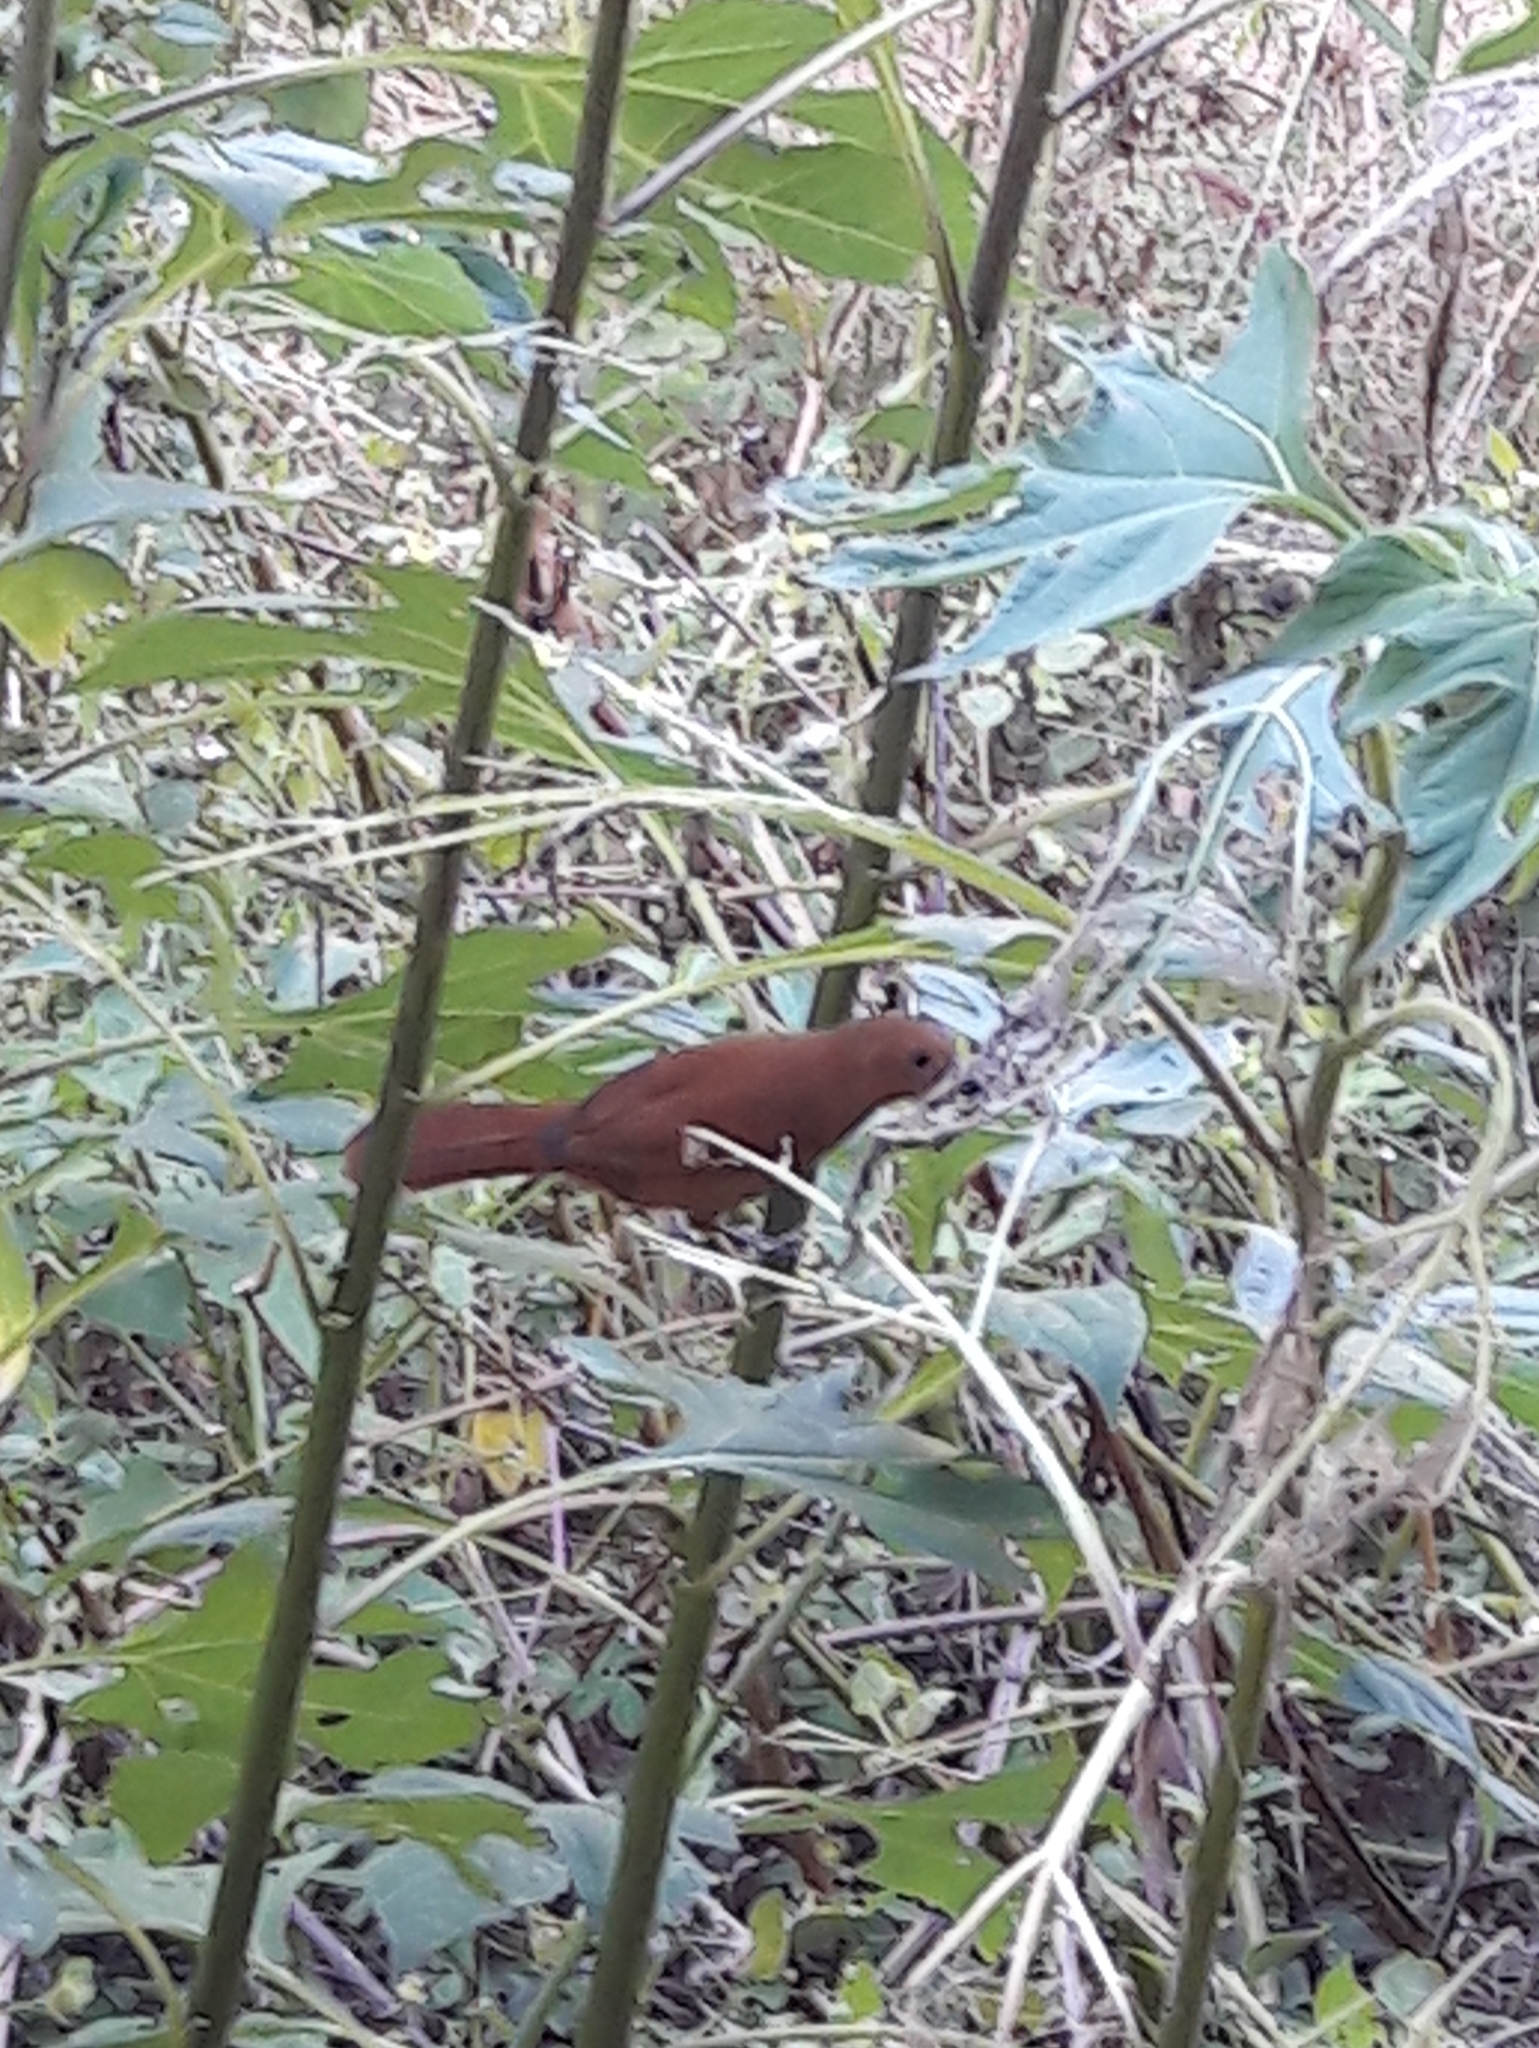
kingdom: Animalia
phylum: Chordata
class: Aves
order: Passeriformes
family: Thraupidae
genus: Tachyphonus
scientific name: Tachyphonus rufus
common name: White-lined tanager
